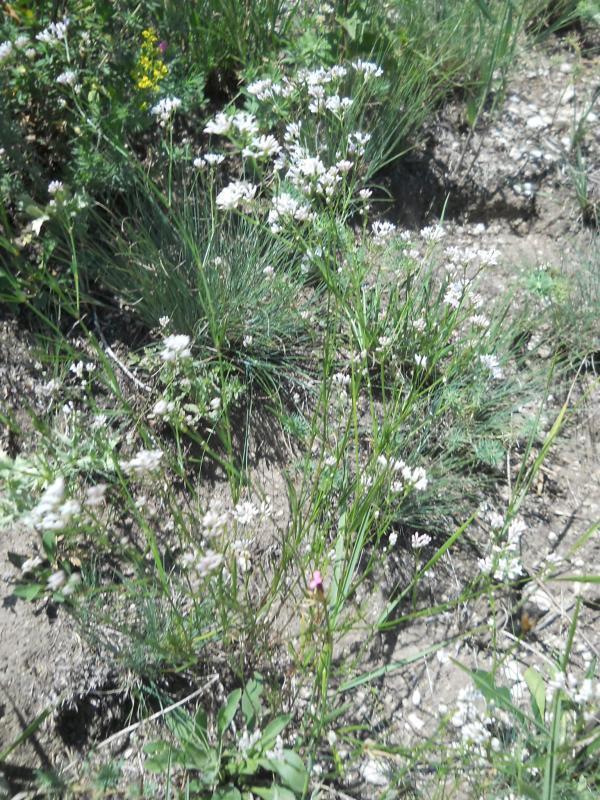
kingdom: Plantae
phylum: Tracheophyta
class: Magnoliopsida
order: Gentianales
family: Rubiaceae
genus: Cynanchica
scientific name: Cynanchica pyrenaica
